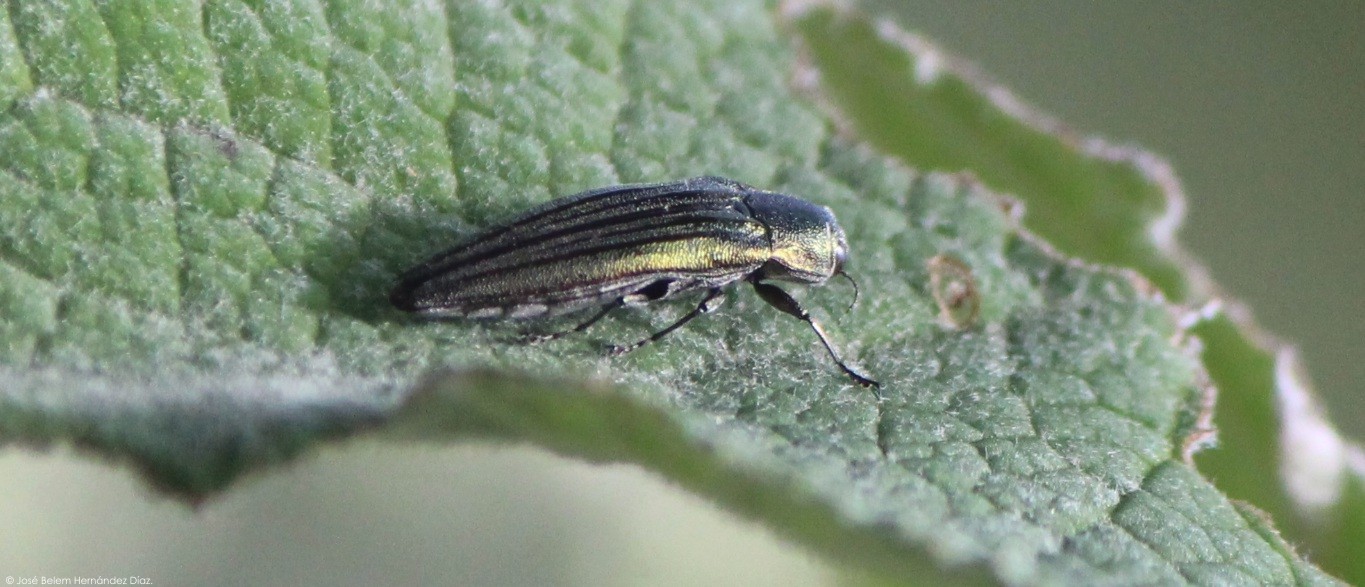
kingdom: Animalia
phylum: Arthropoda
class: Insecta
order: Coleoptera
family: Buprestidae
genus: Agrilus
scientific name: Agrilus sulcatulus
